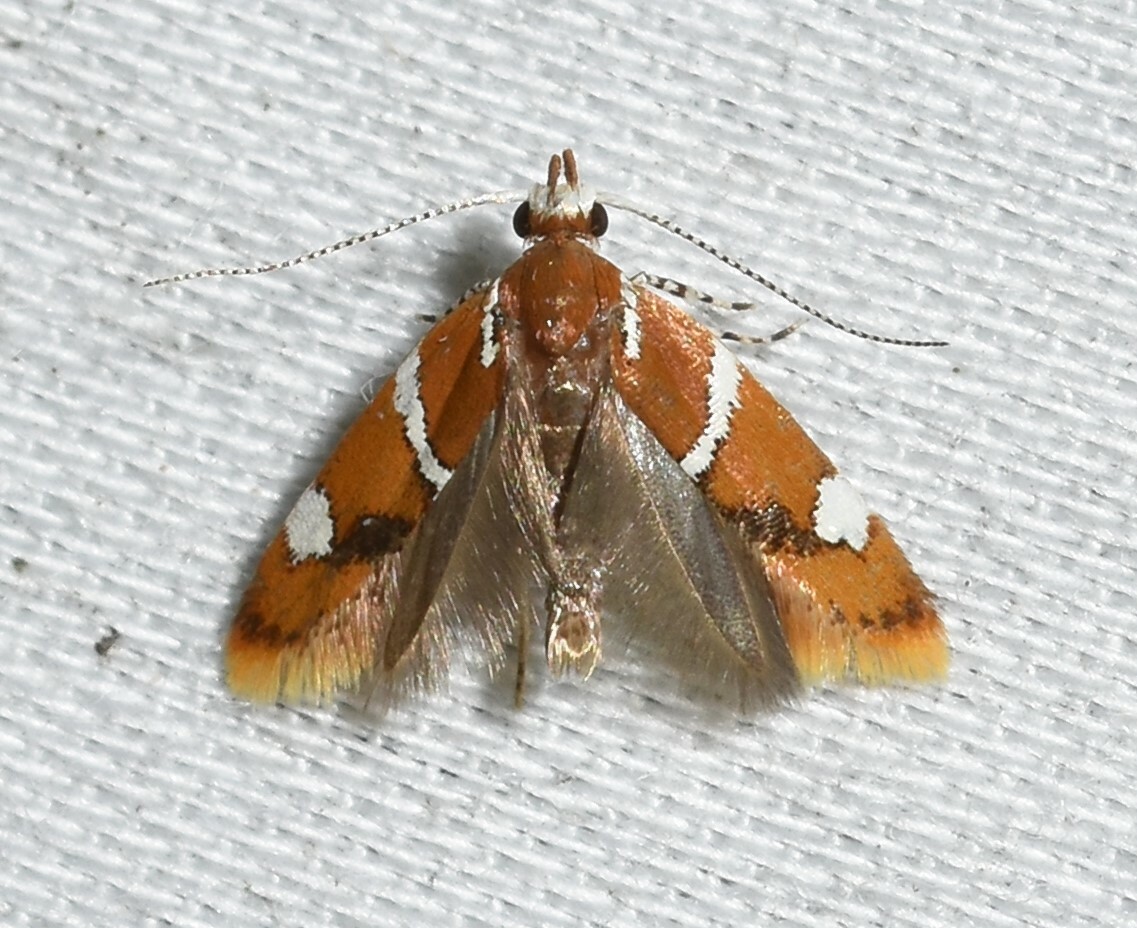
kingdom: Animalia
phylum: Arthropoda
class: Insecta
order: Lepidoptera
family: Oecophoridae
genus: Promalactis
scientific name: Promalactis suzukiella
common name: Moth
